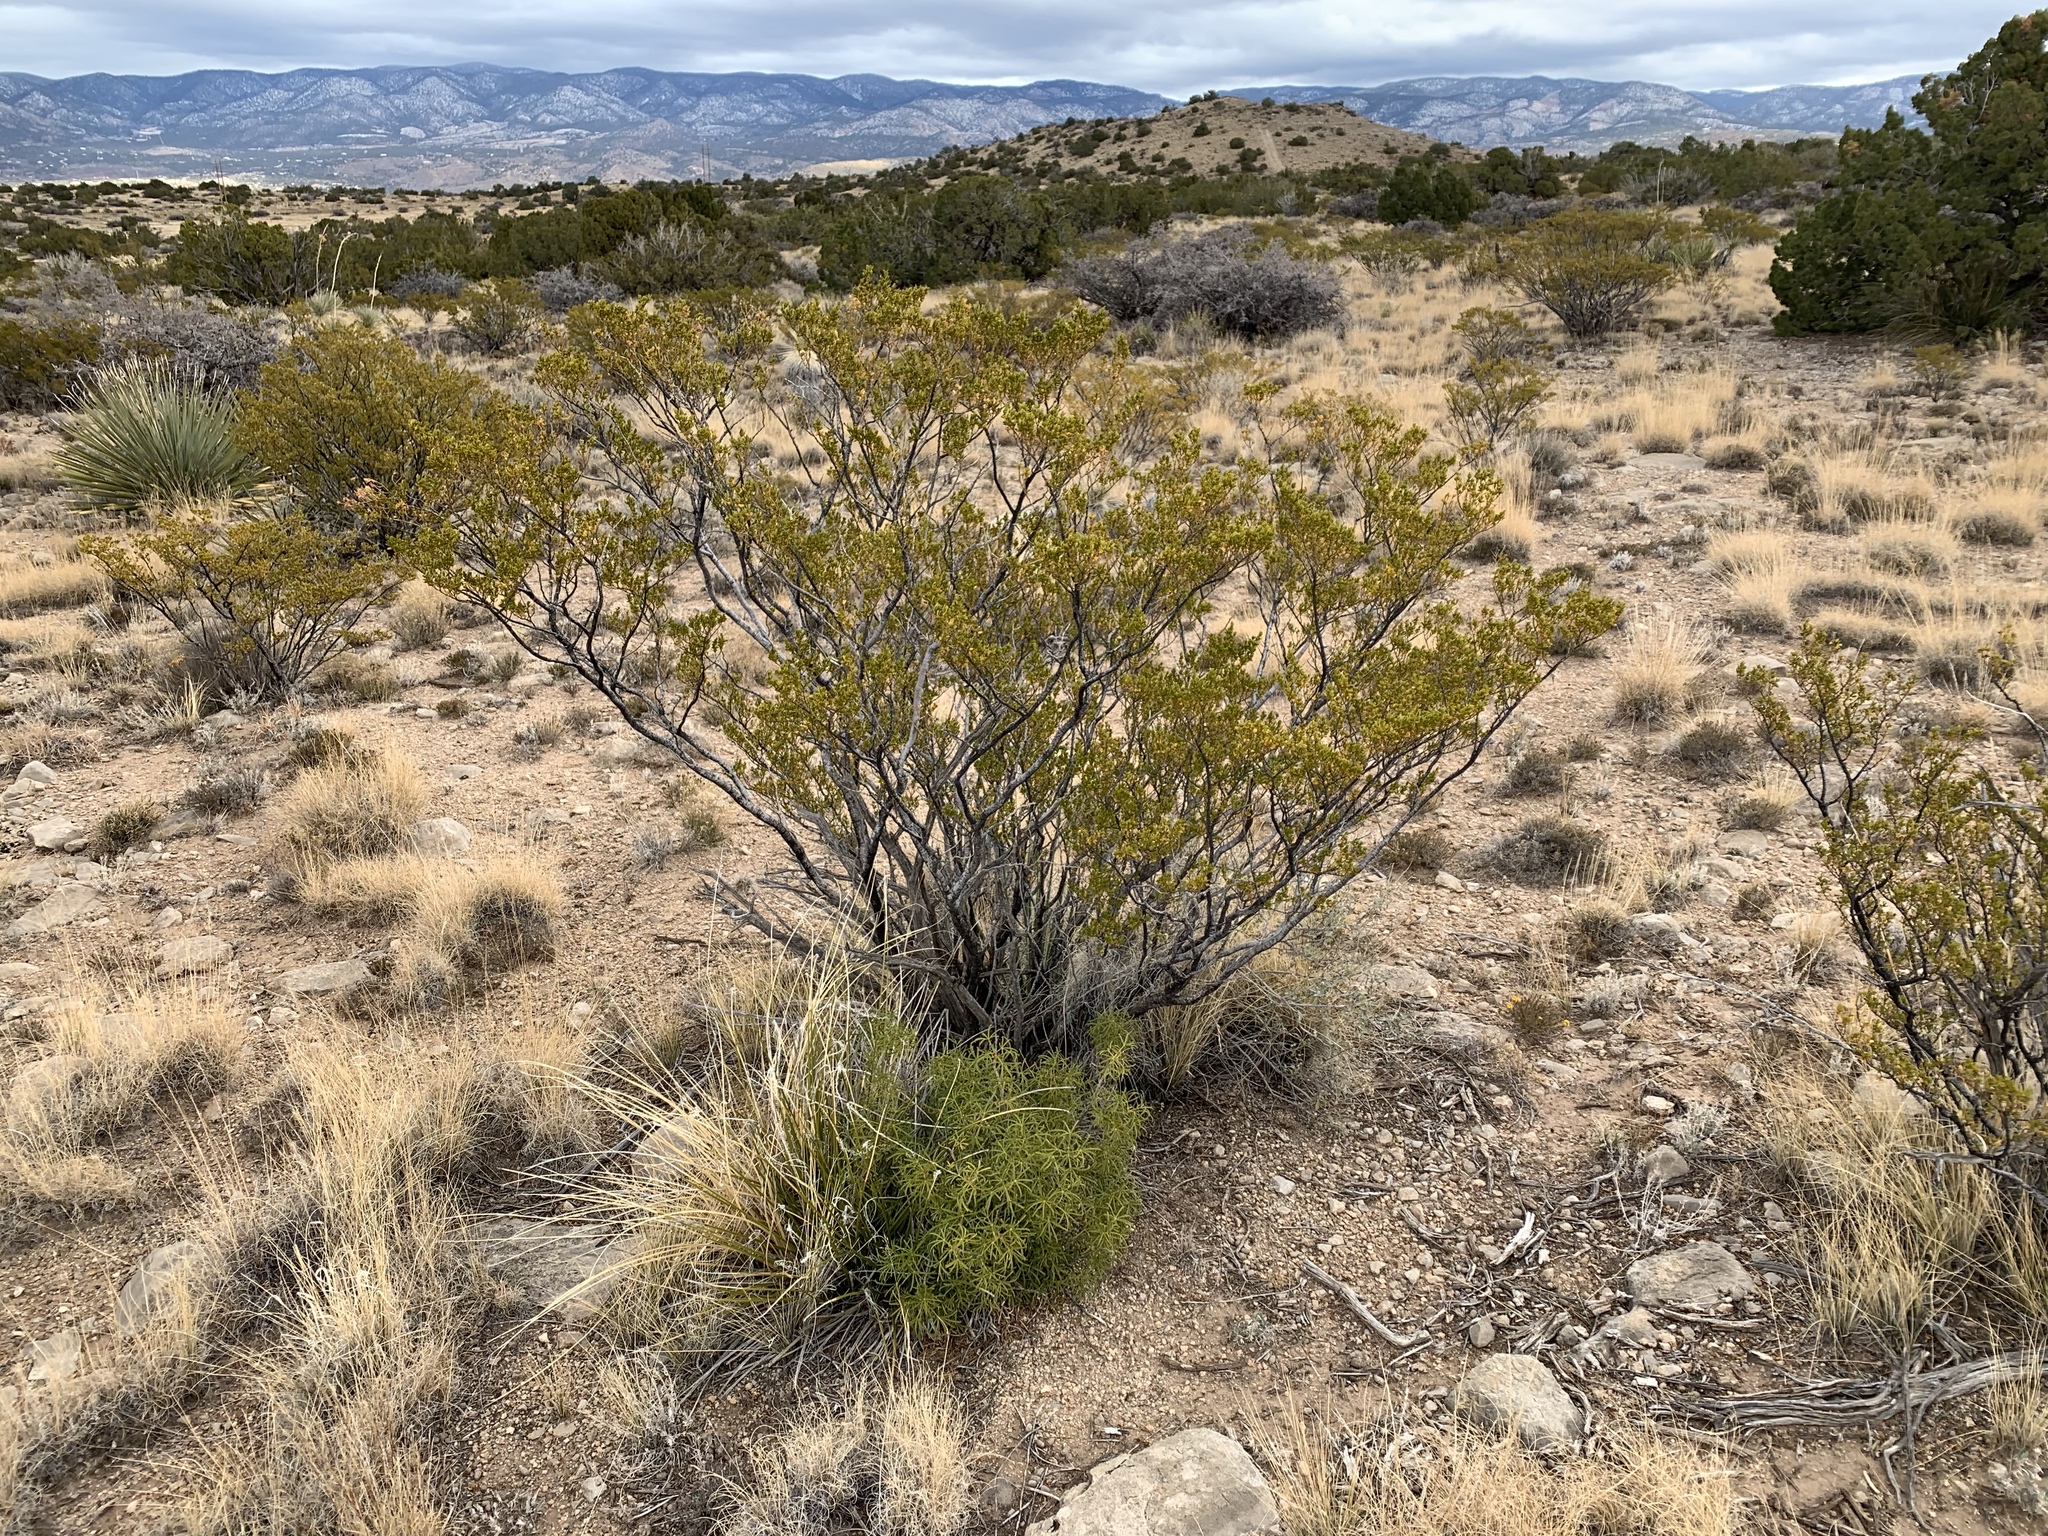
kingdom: Plantae
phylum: Tracheophyta
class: Magnoliopsida
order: Zygophyllales
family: Zygophyllaceae
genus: Larrea
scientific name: Larrea tridentata
